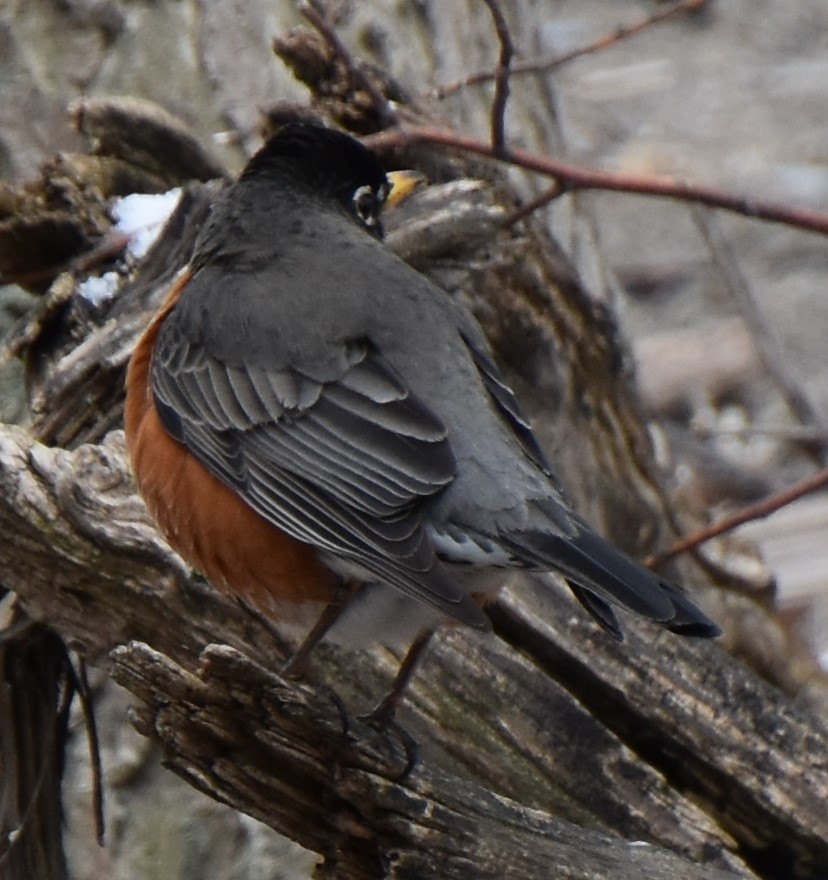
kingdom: Animalia
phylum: Chordata
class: Aves
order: Passeriformes
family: Turdidae
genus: Turdus
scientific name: Turdus migratorius
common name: American robin
